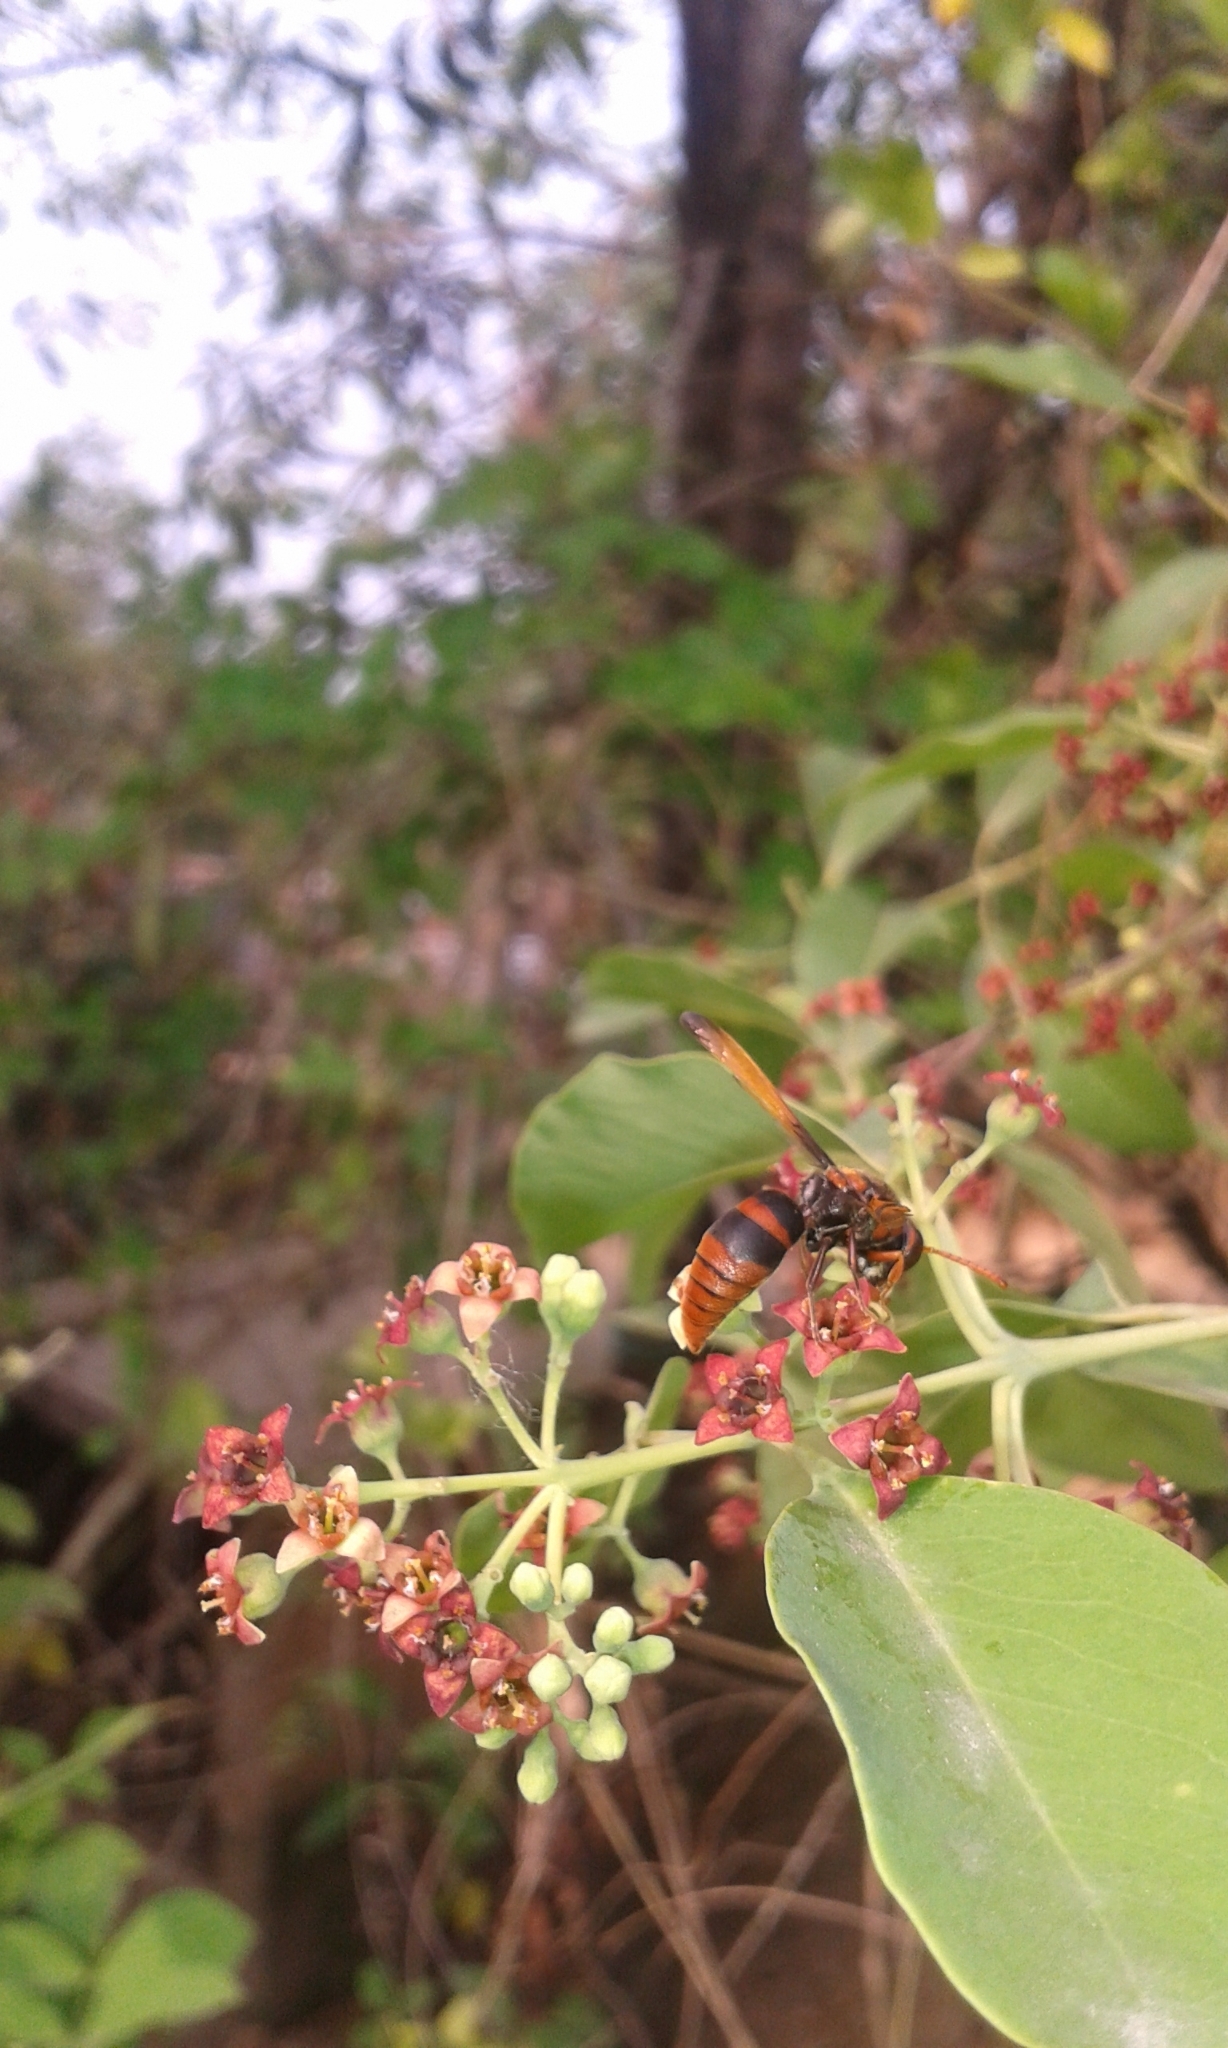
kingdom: Animalia
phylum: Arthropoda
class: Insecta
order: Hymenoptera
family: Eumenidae
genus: Rhynchium
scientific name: Rhynchium brunneum
